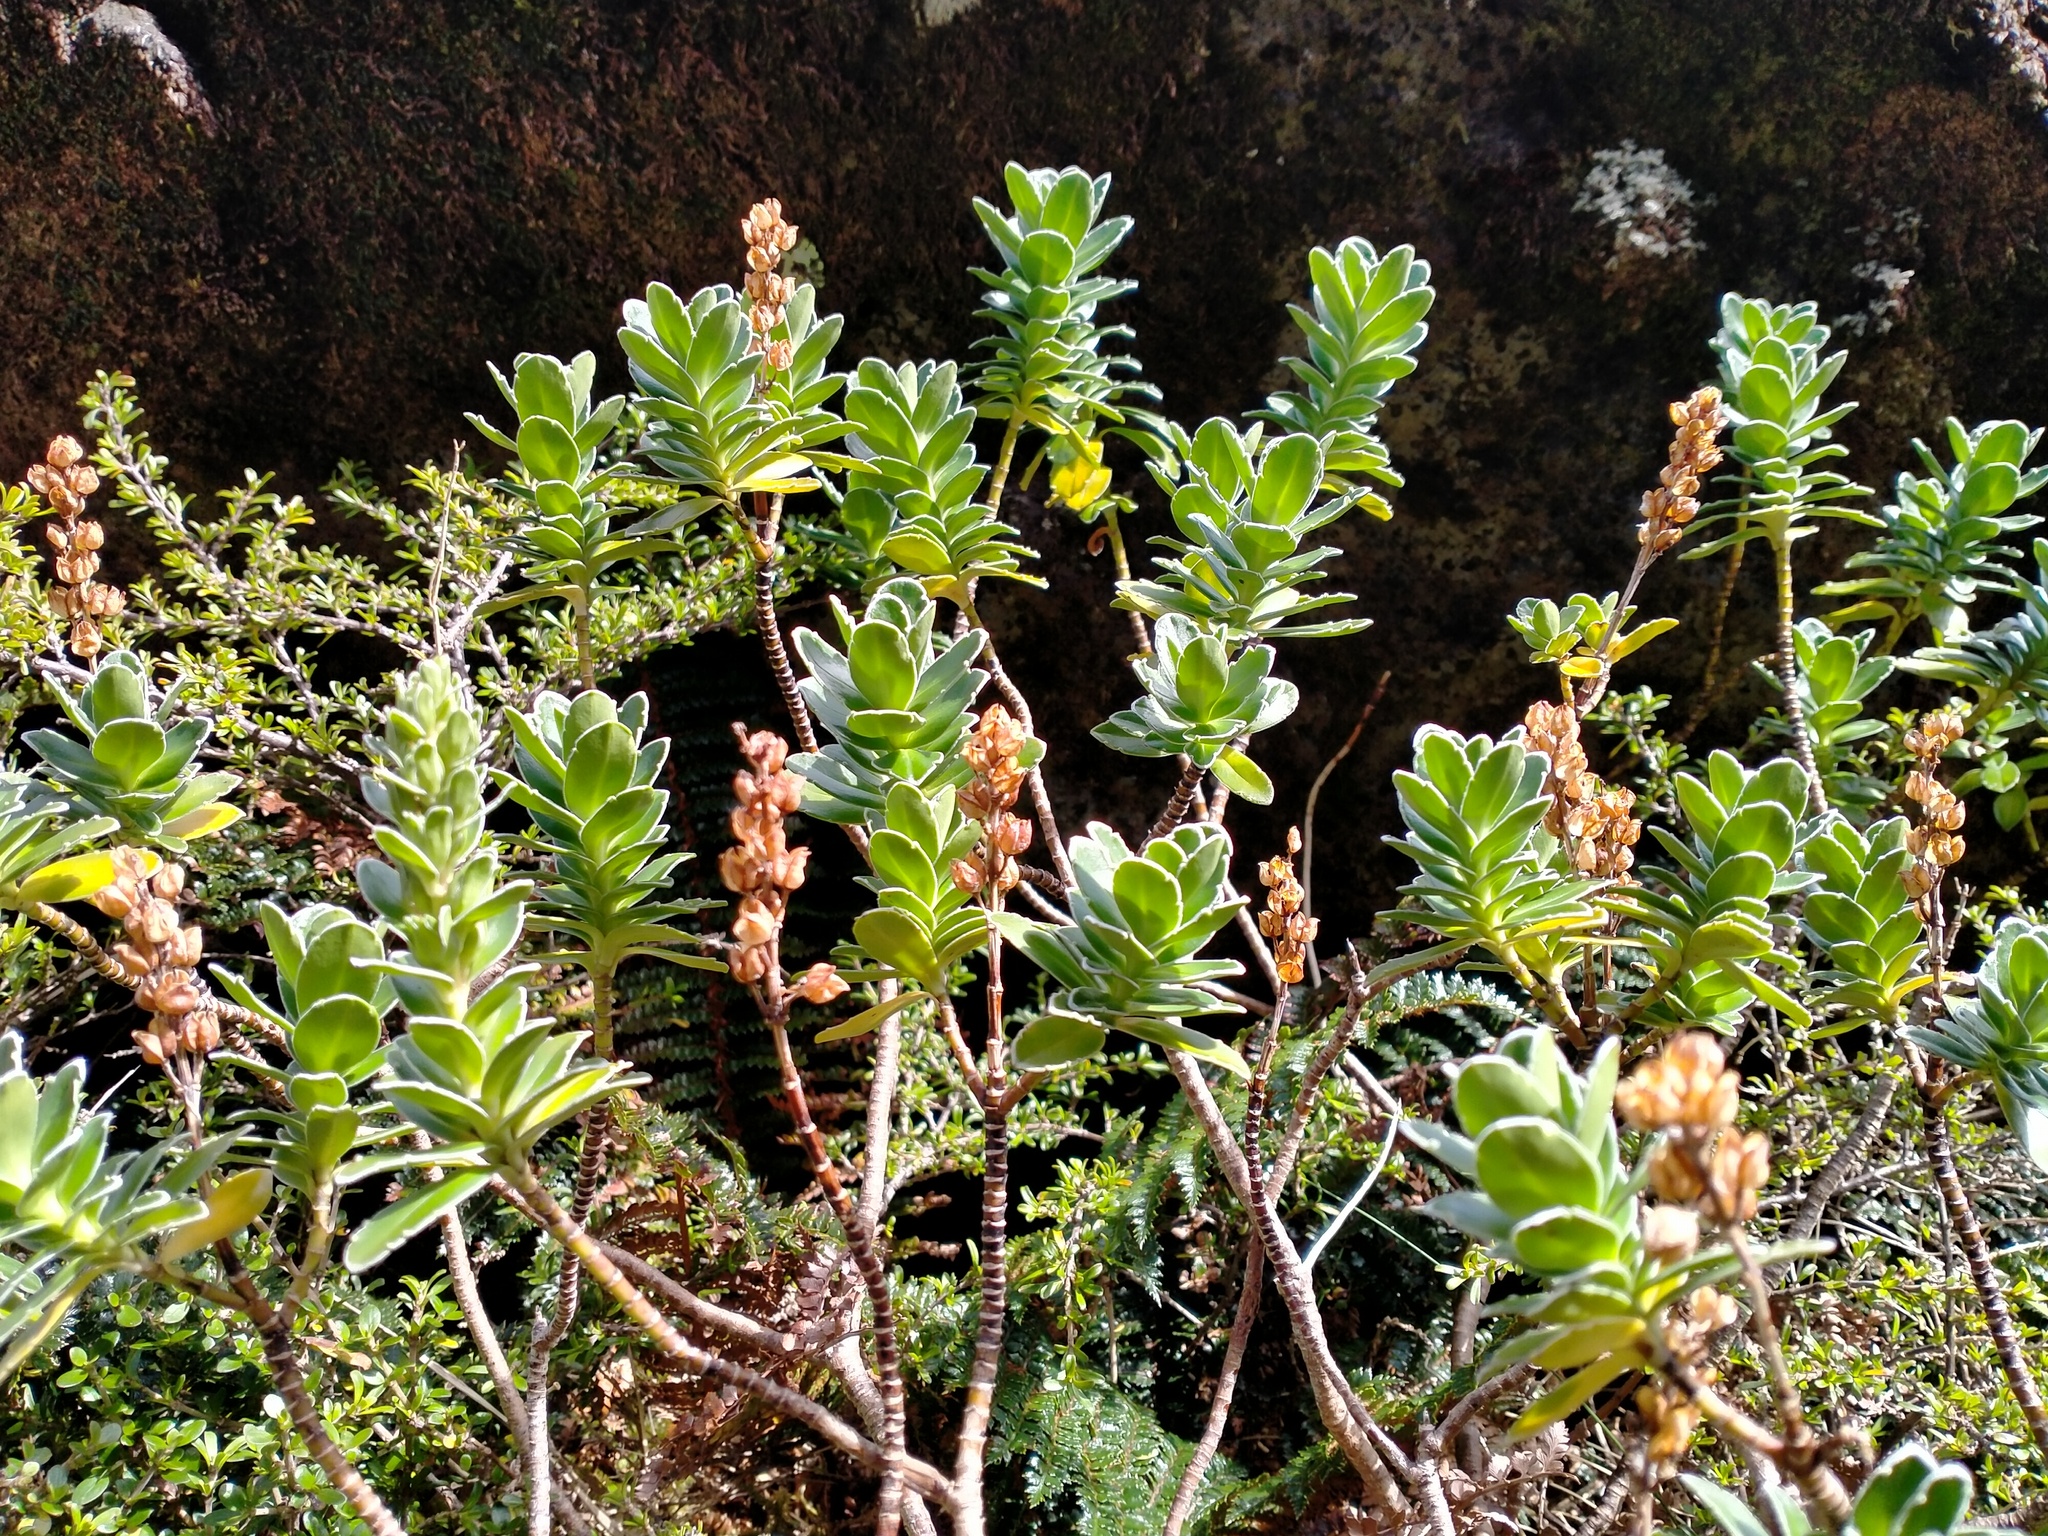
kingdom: Plantae
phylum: Tracheophyta
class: Magnoliopsida
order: Lamiales
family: Plantaginaceae
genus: Veronica
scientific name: Veronica benthamii
